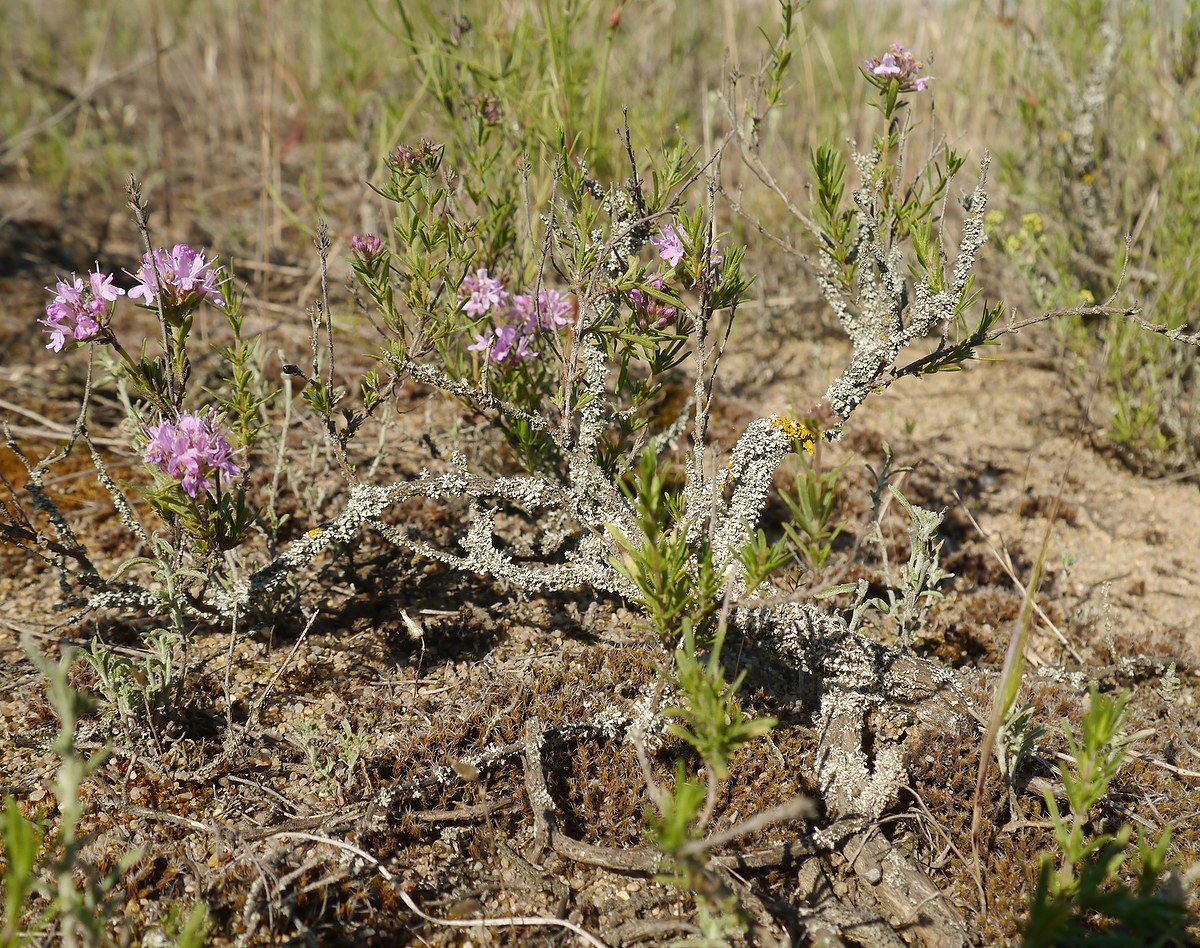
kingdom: Plantae
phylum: Tracheophyta
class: Magnoliopsida
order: Lamiales
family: Lamiaceae
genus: Thymus
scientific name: Thymus pallasianus
